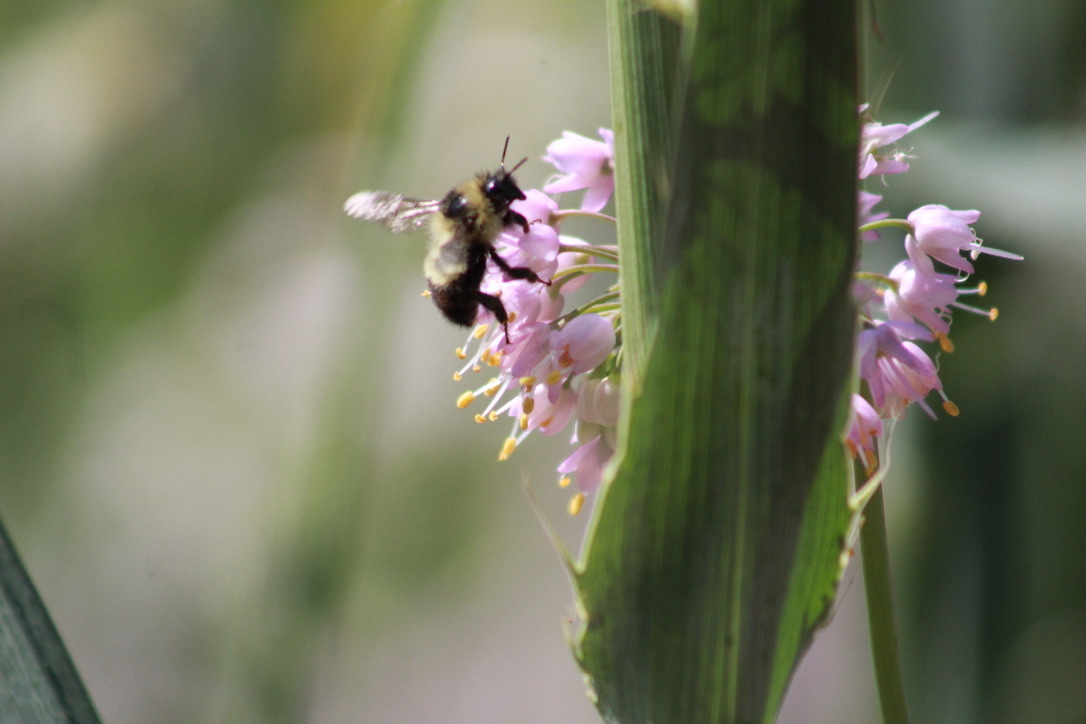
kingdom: Animalia
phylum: Arthropoda
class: Insecta
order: Hymenoptera
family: Apidae
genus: Bombus
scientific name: Bombus rufocinctus
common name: Red-belted bumble bee
